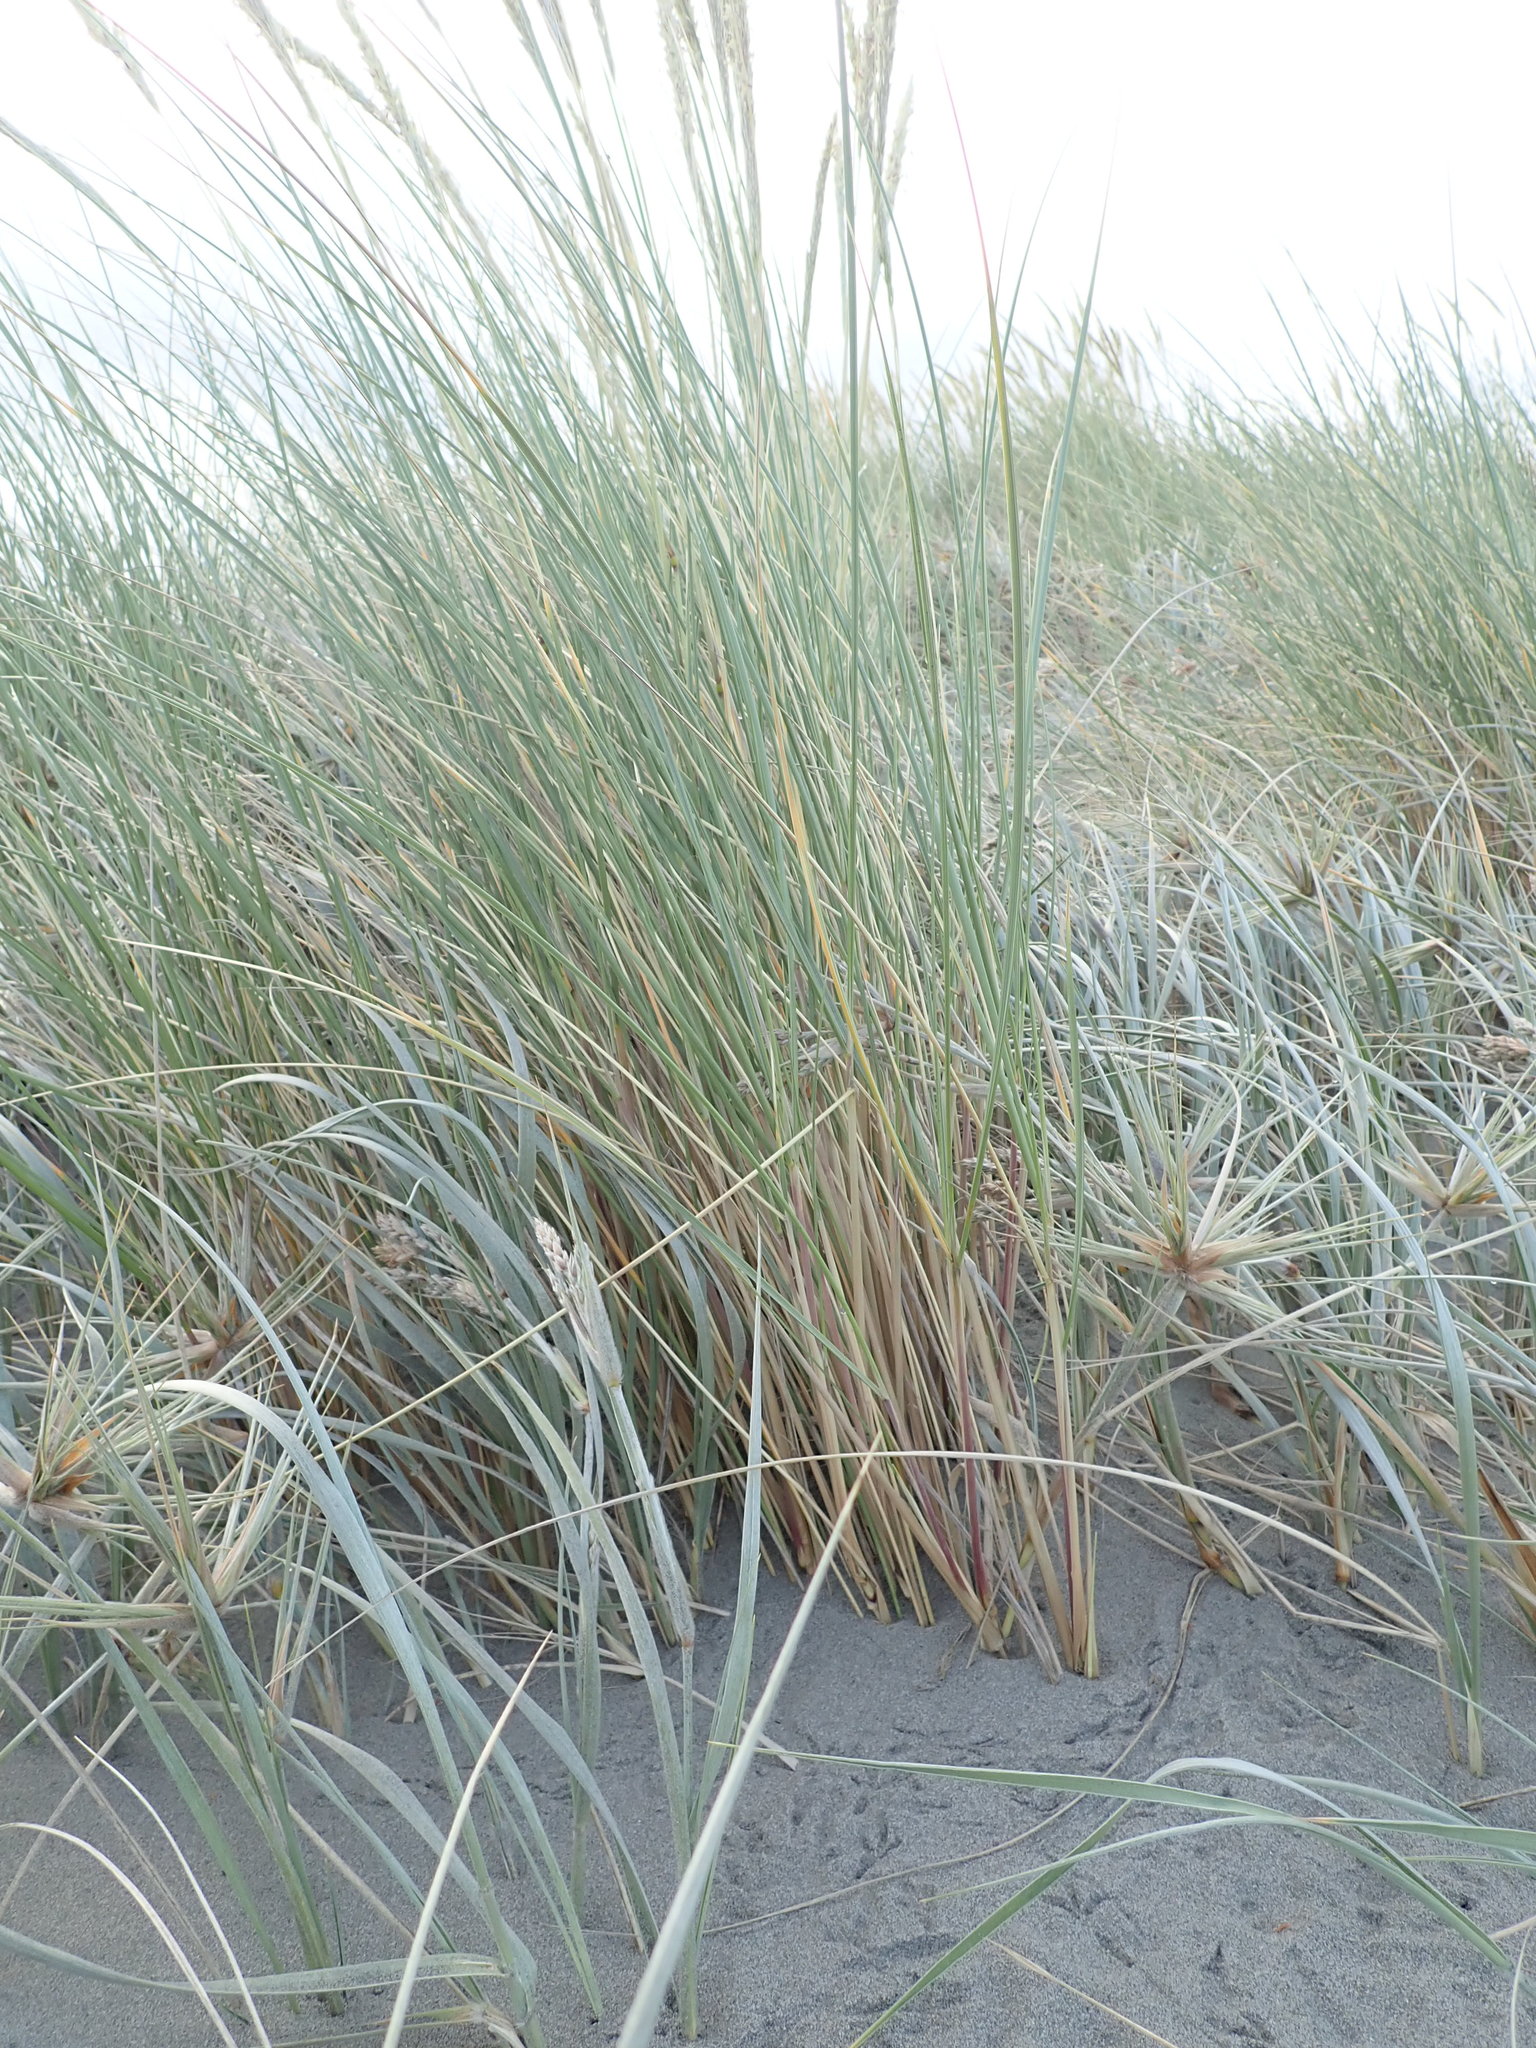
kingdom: Plantae
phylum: Tracheophyta
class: Liliopsida
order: Poales
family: Poaceae
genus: Calamagrostis
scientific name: Calamagrostis arenaria
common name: European beachgrass
